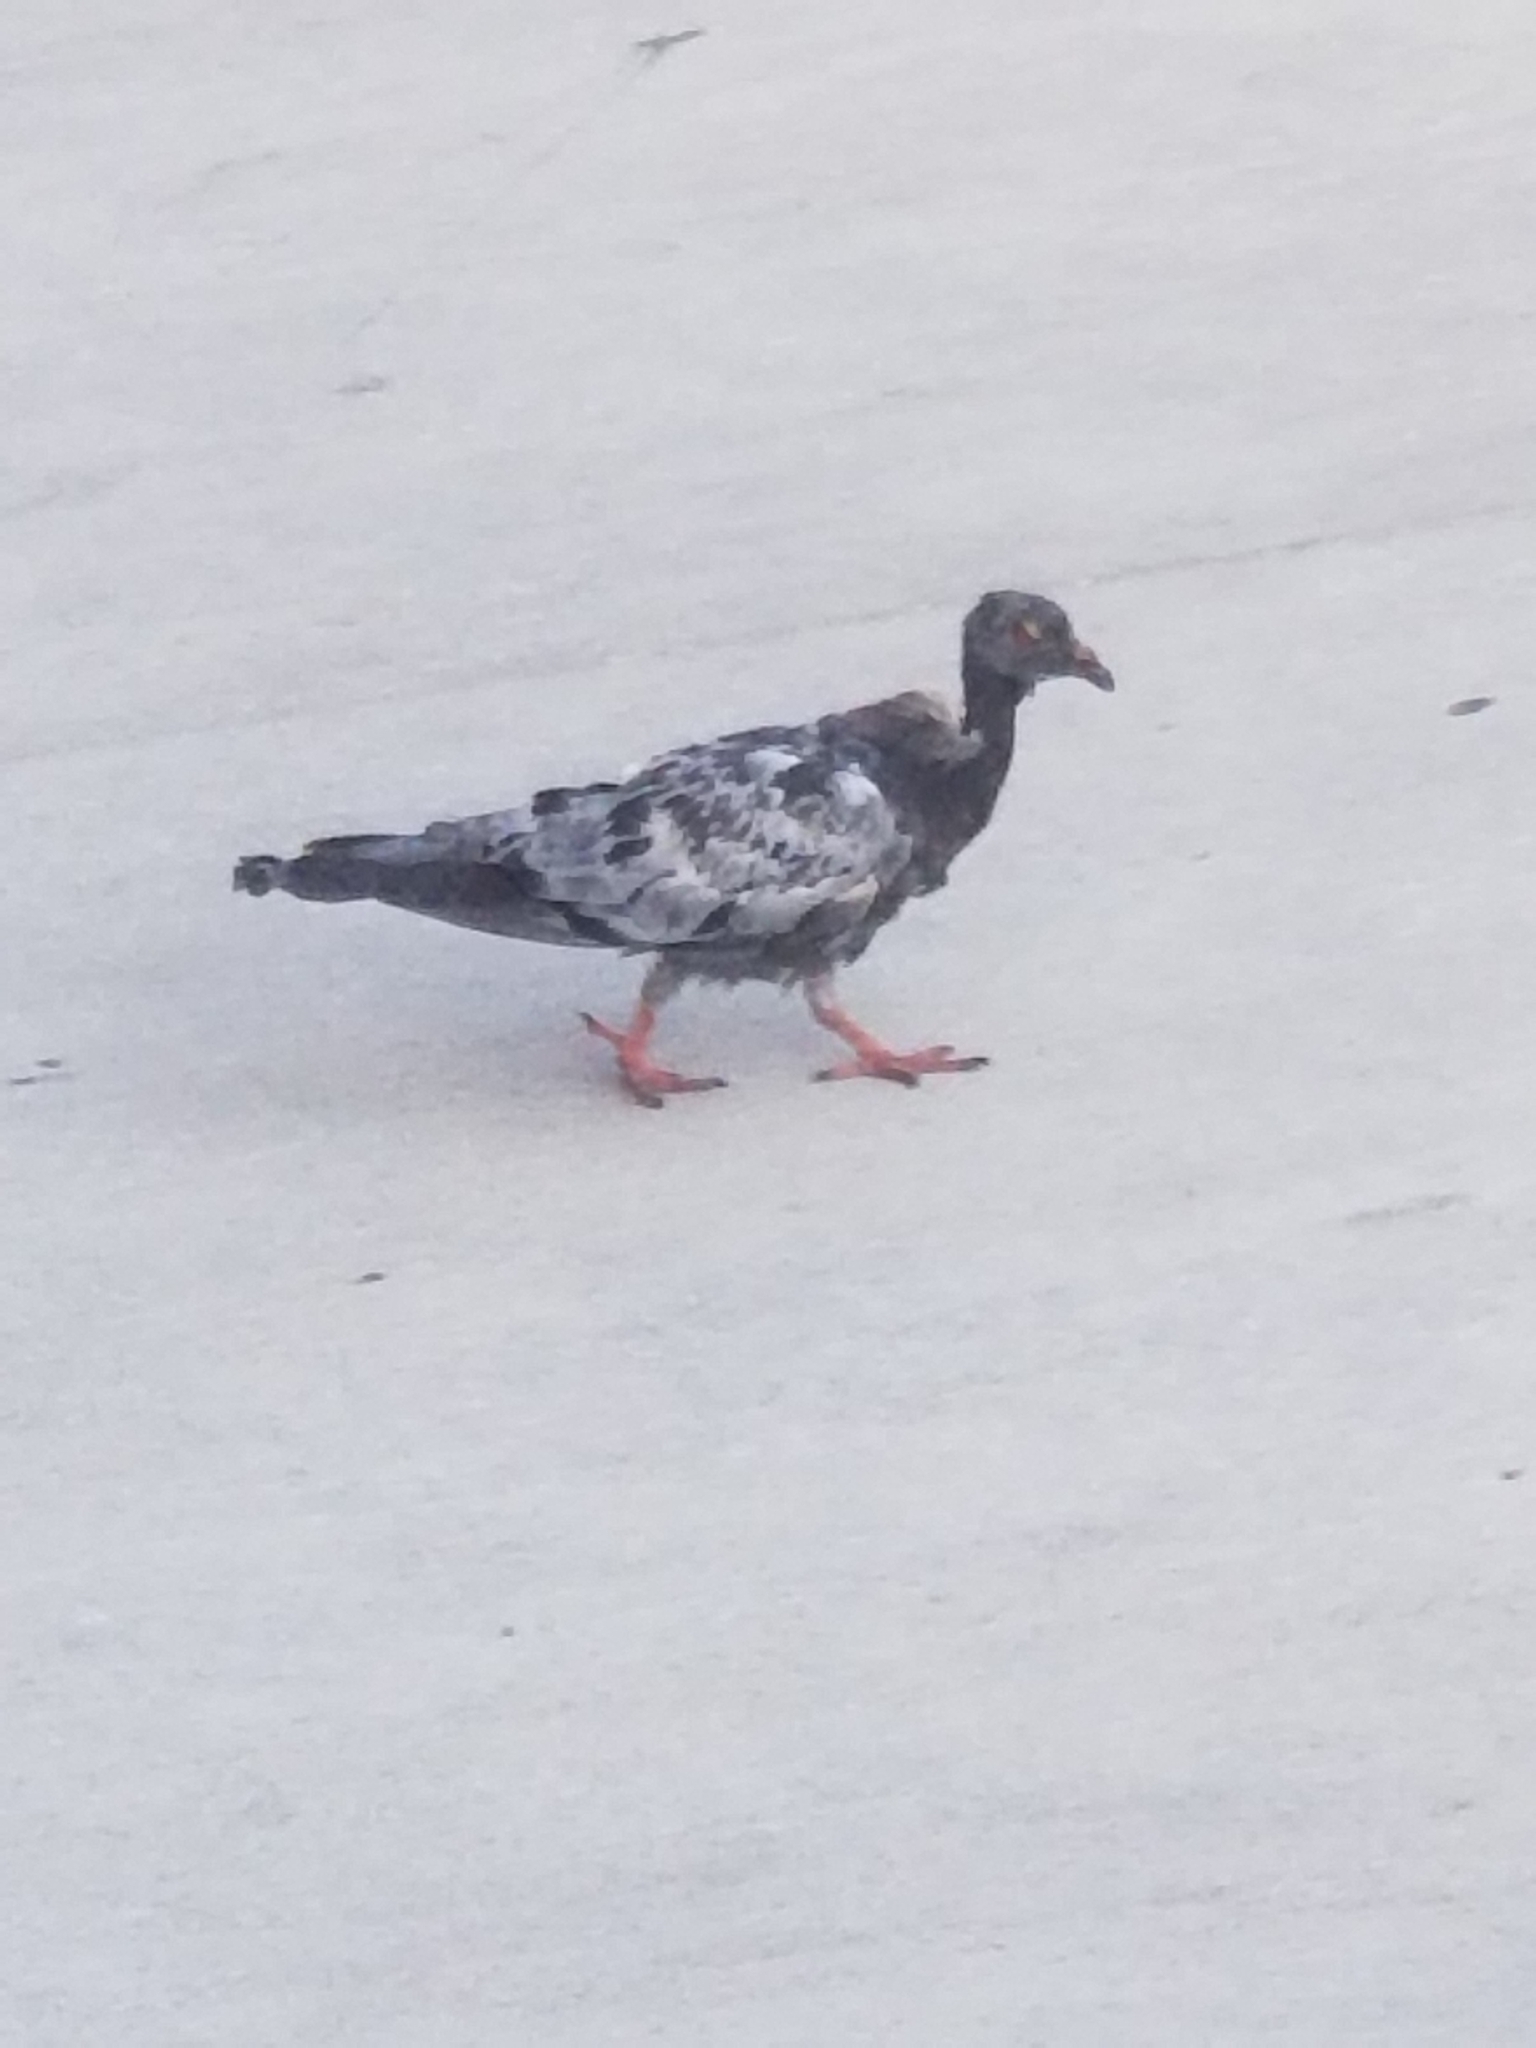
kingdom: Animalia
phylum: Chordata
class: Aves
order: Columbiformes
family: Columbidae
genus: Columba
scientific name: Columba livia
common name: Rock pigeon
